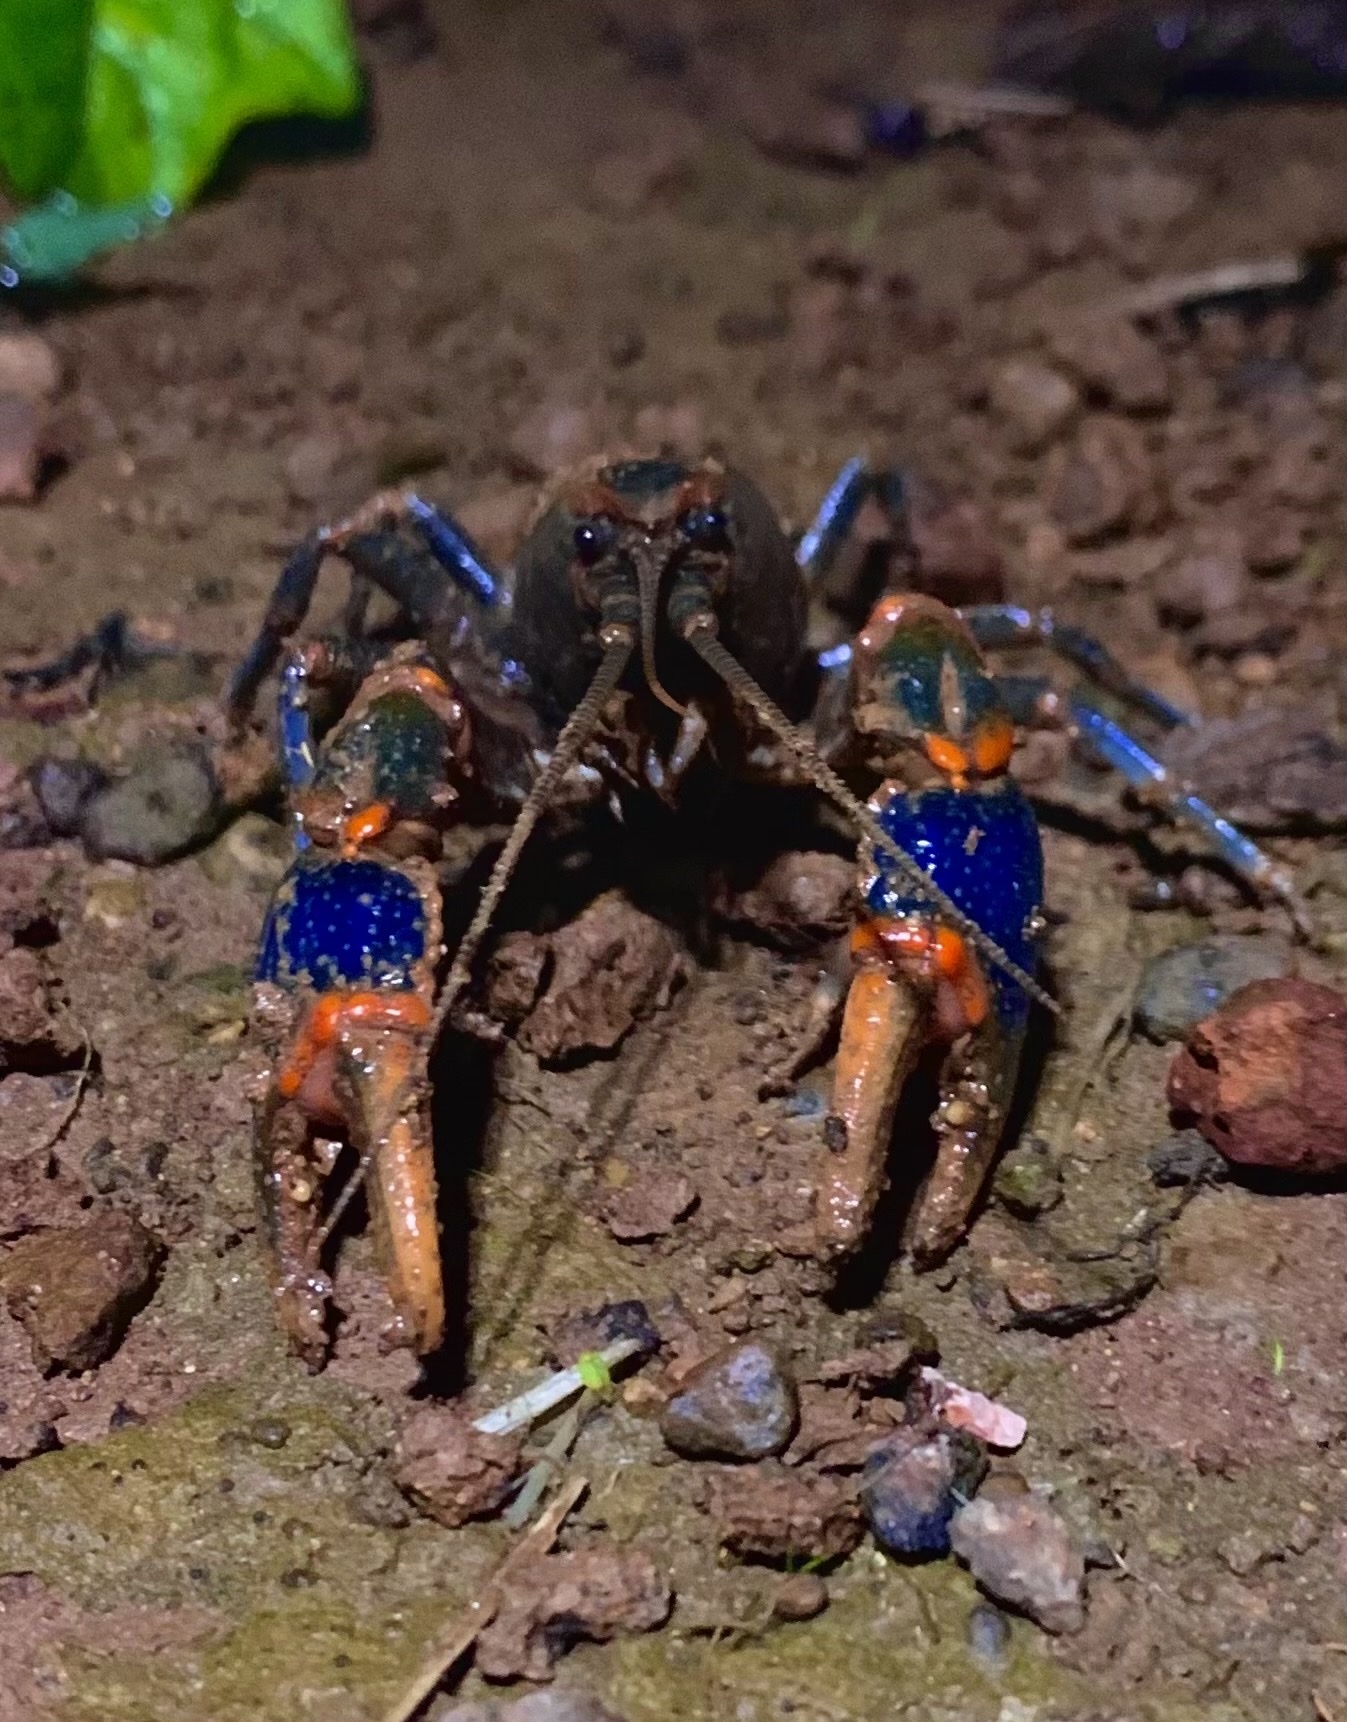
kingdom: Animalia
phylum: Arthropoda
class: Malacostraca
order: Decapoda
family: Cambaridae
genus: Cambarus
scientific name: Cambarus gentryi
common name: Linear cobalt crayfish
